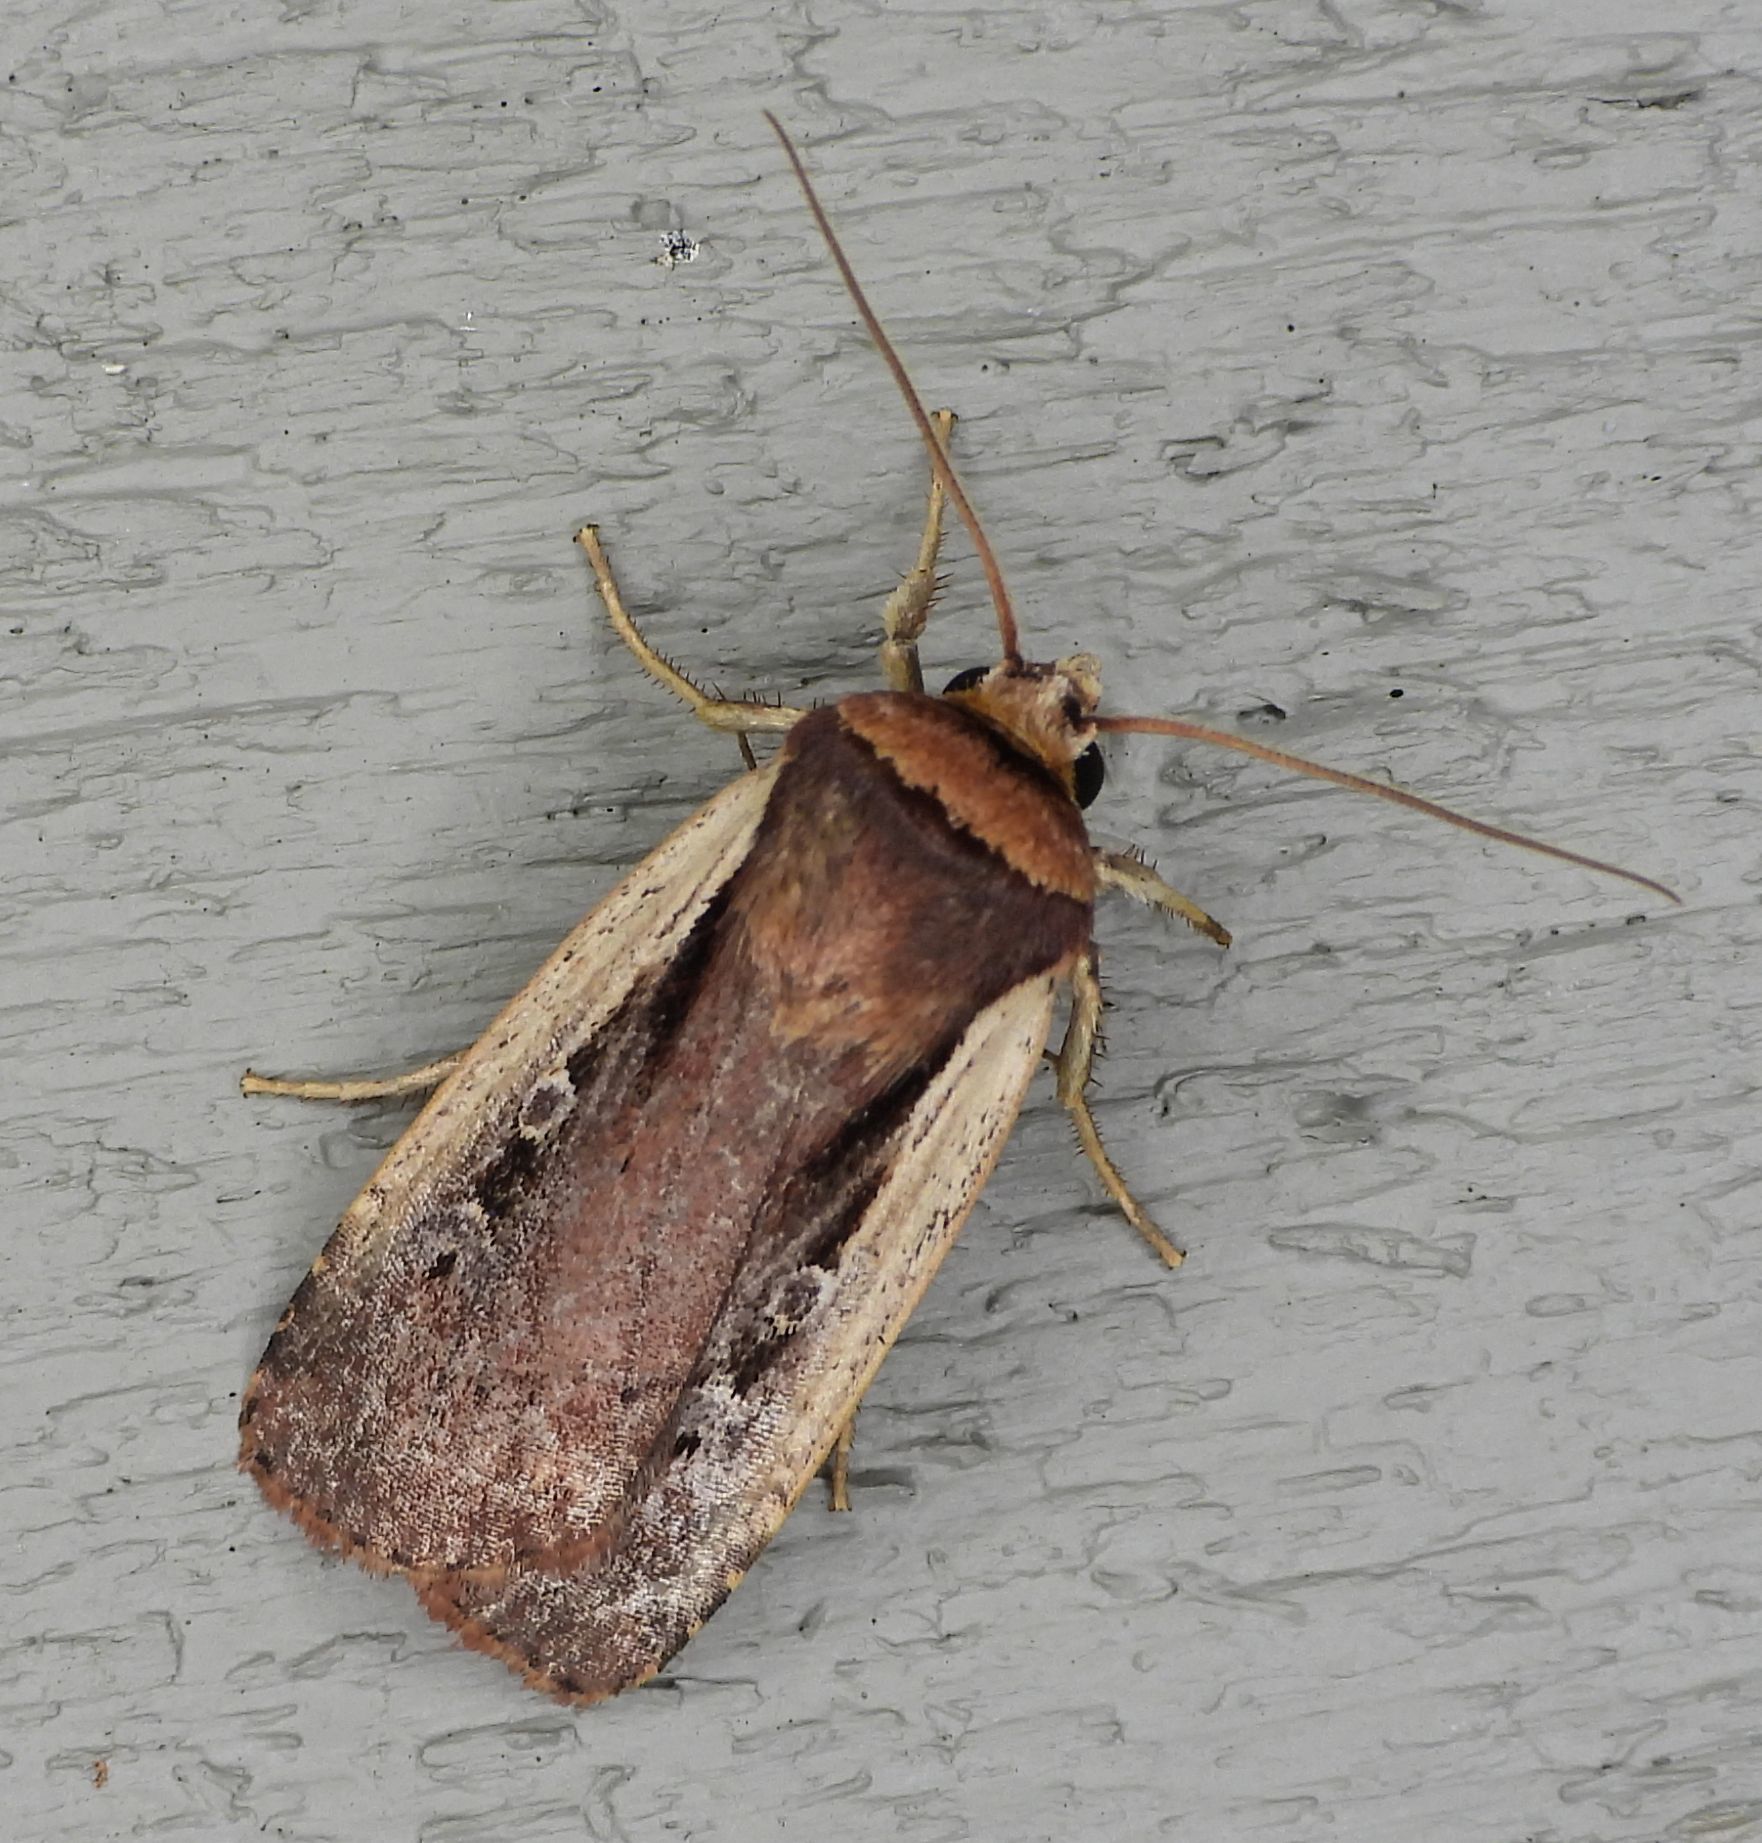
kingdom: Animalia
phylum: Arthropoda
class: Insecta
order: Lepidoptera
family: Noctuidae
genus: Ochropleura
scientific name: Ochropleura implecta
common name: Flame-shouldered dart
